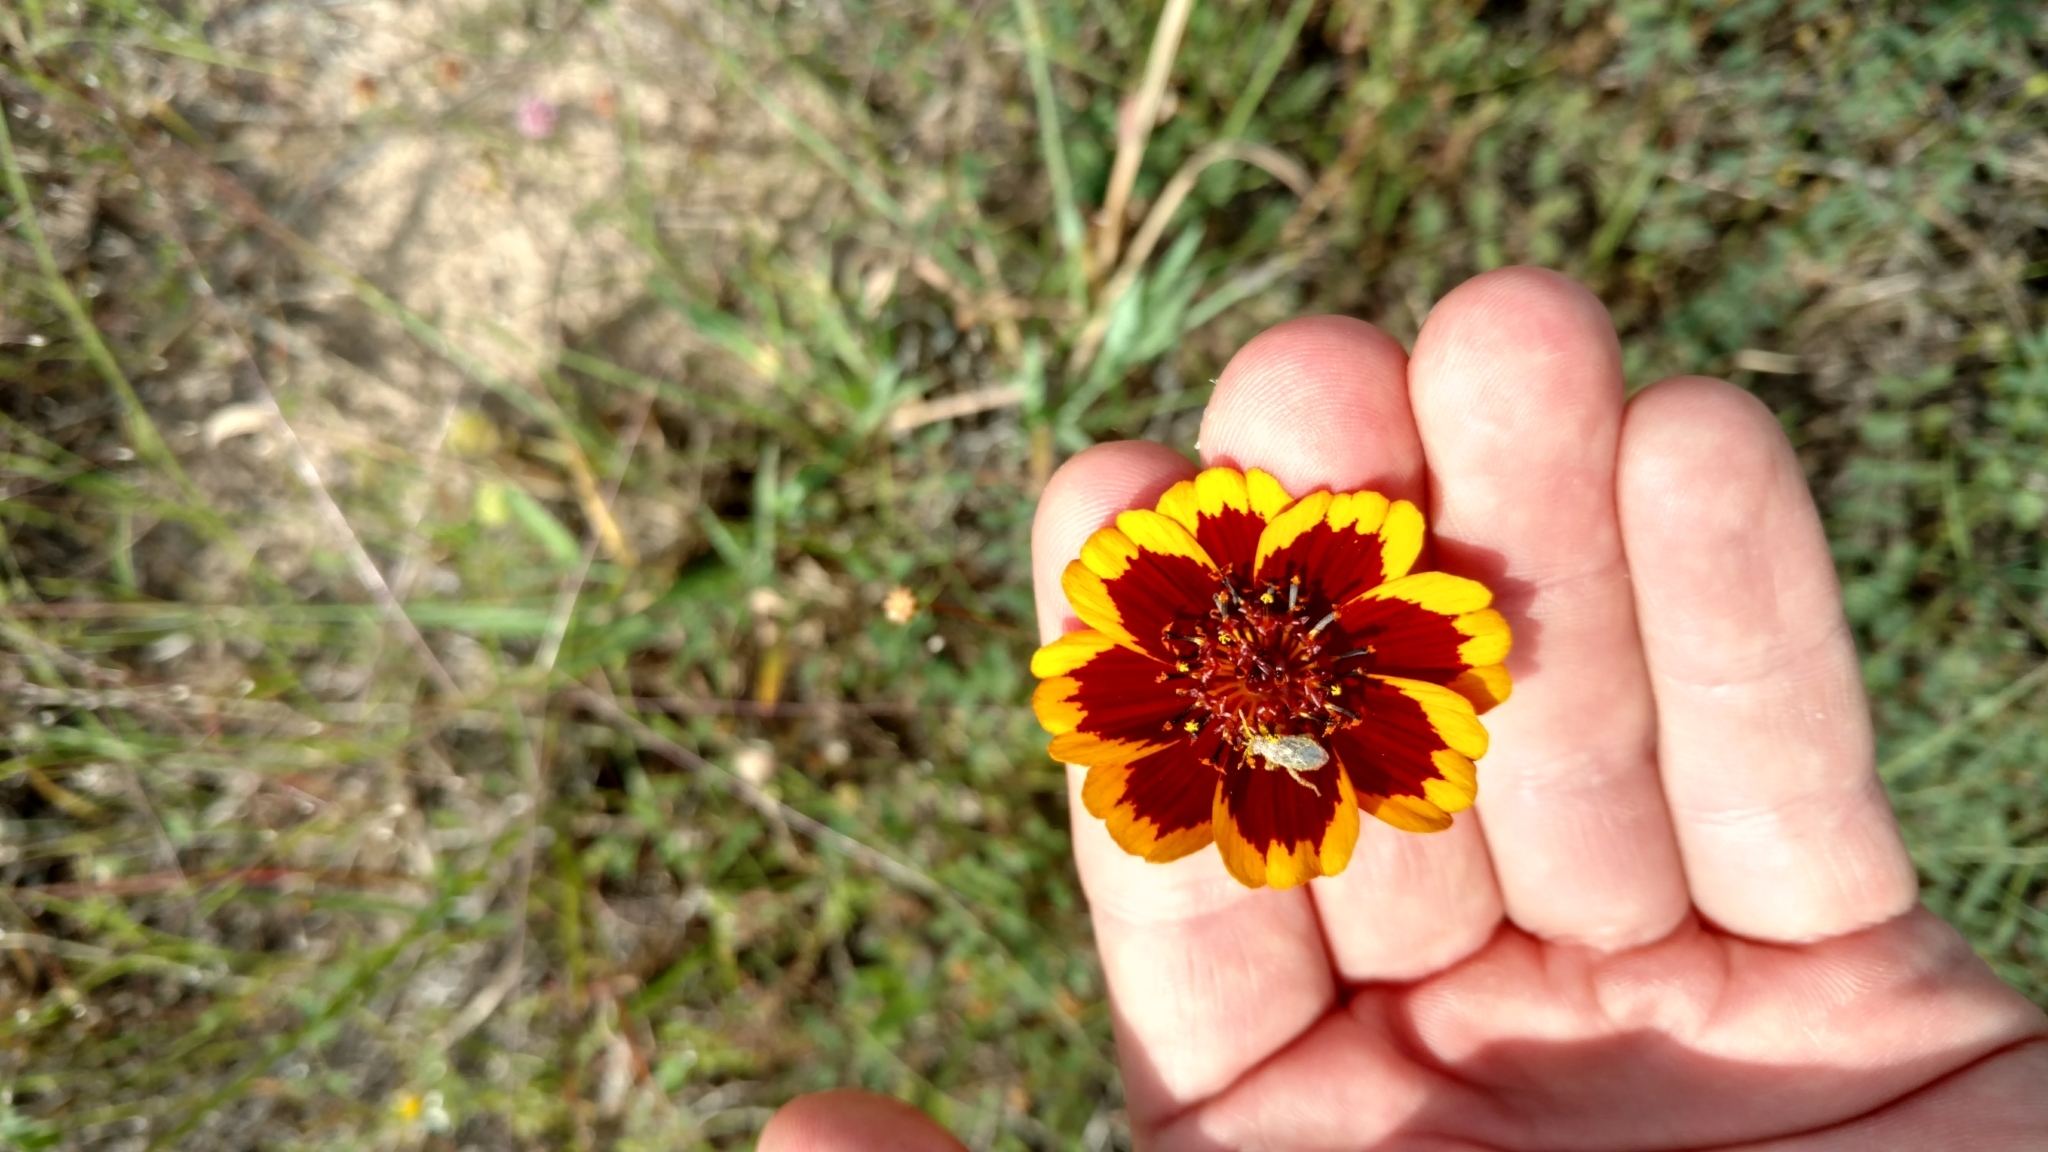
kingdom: Plantae
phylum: Tracheophyta
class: Magnoliopsida
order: Asterales
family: Asteraceae
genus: Thelesperma
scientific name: Thelesperma burridgeanum
